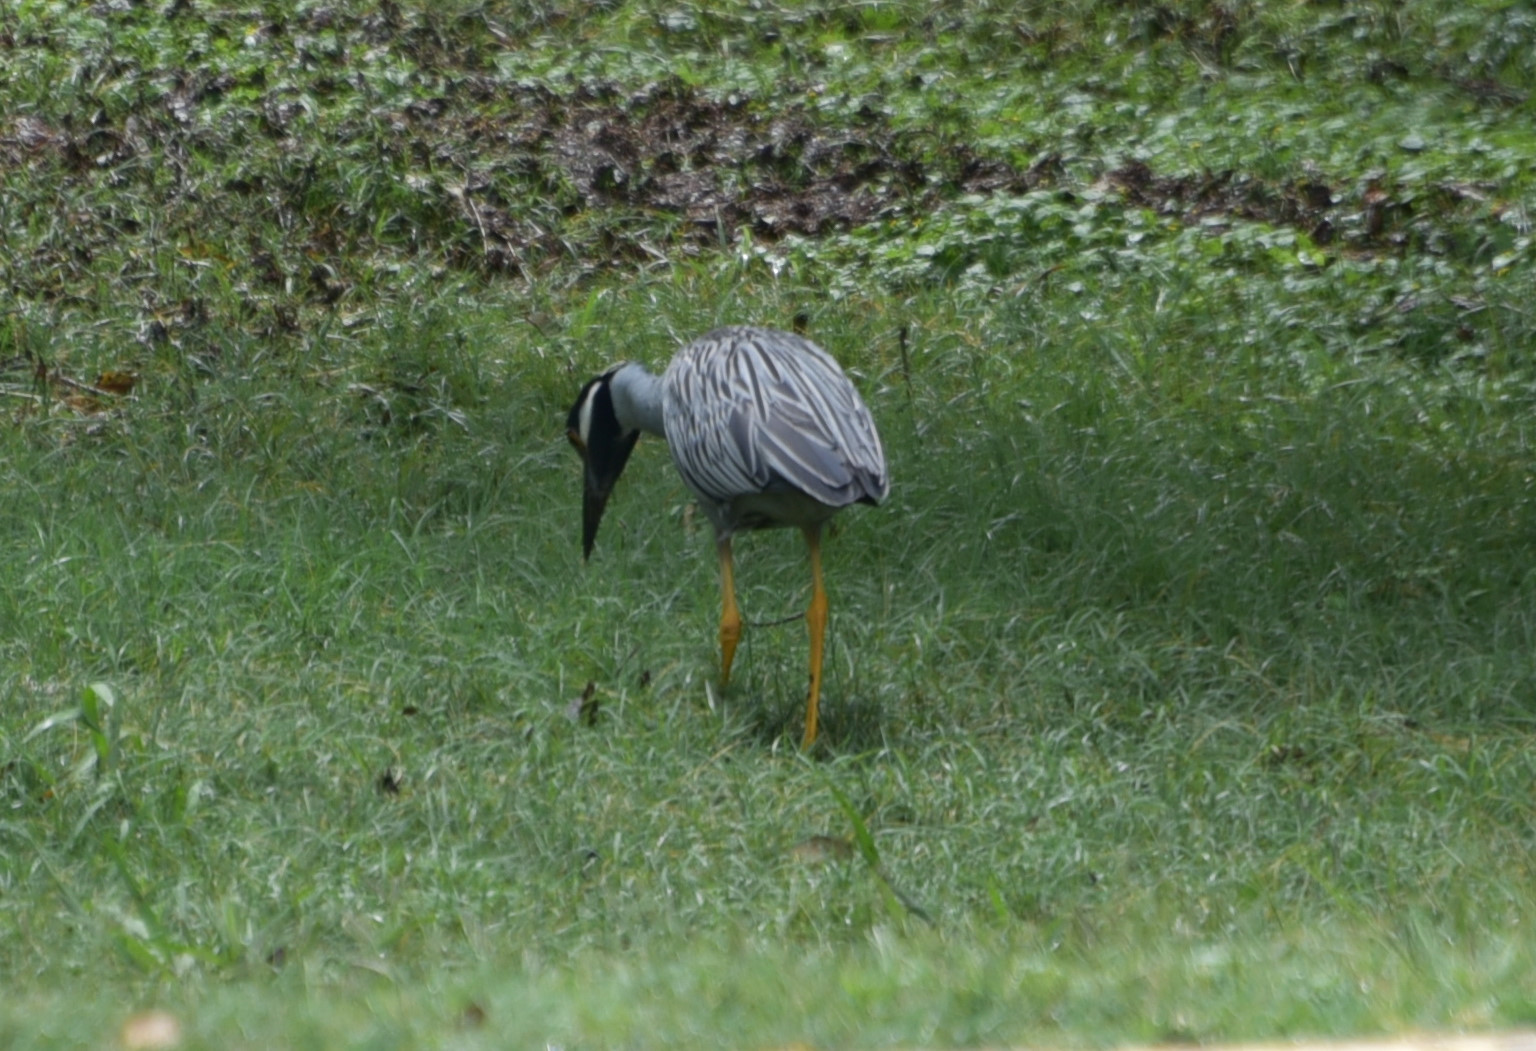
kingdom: Animalia
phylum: Chordata
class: Aves
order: Pelecaniformes
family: Ardeidae
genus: Nyctanassa
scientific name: Nyctanassa violacea
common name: Yellow-crowned night heron
